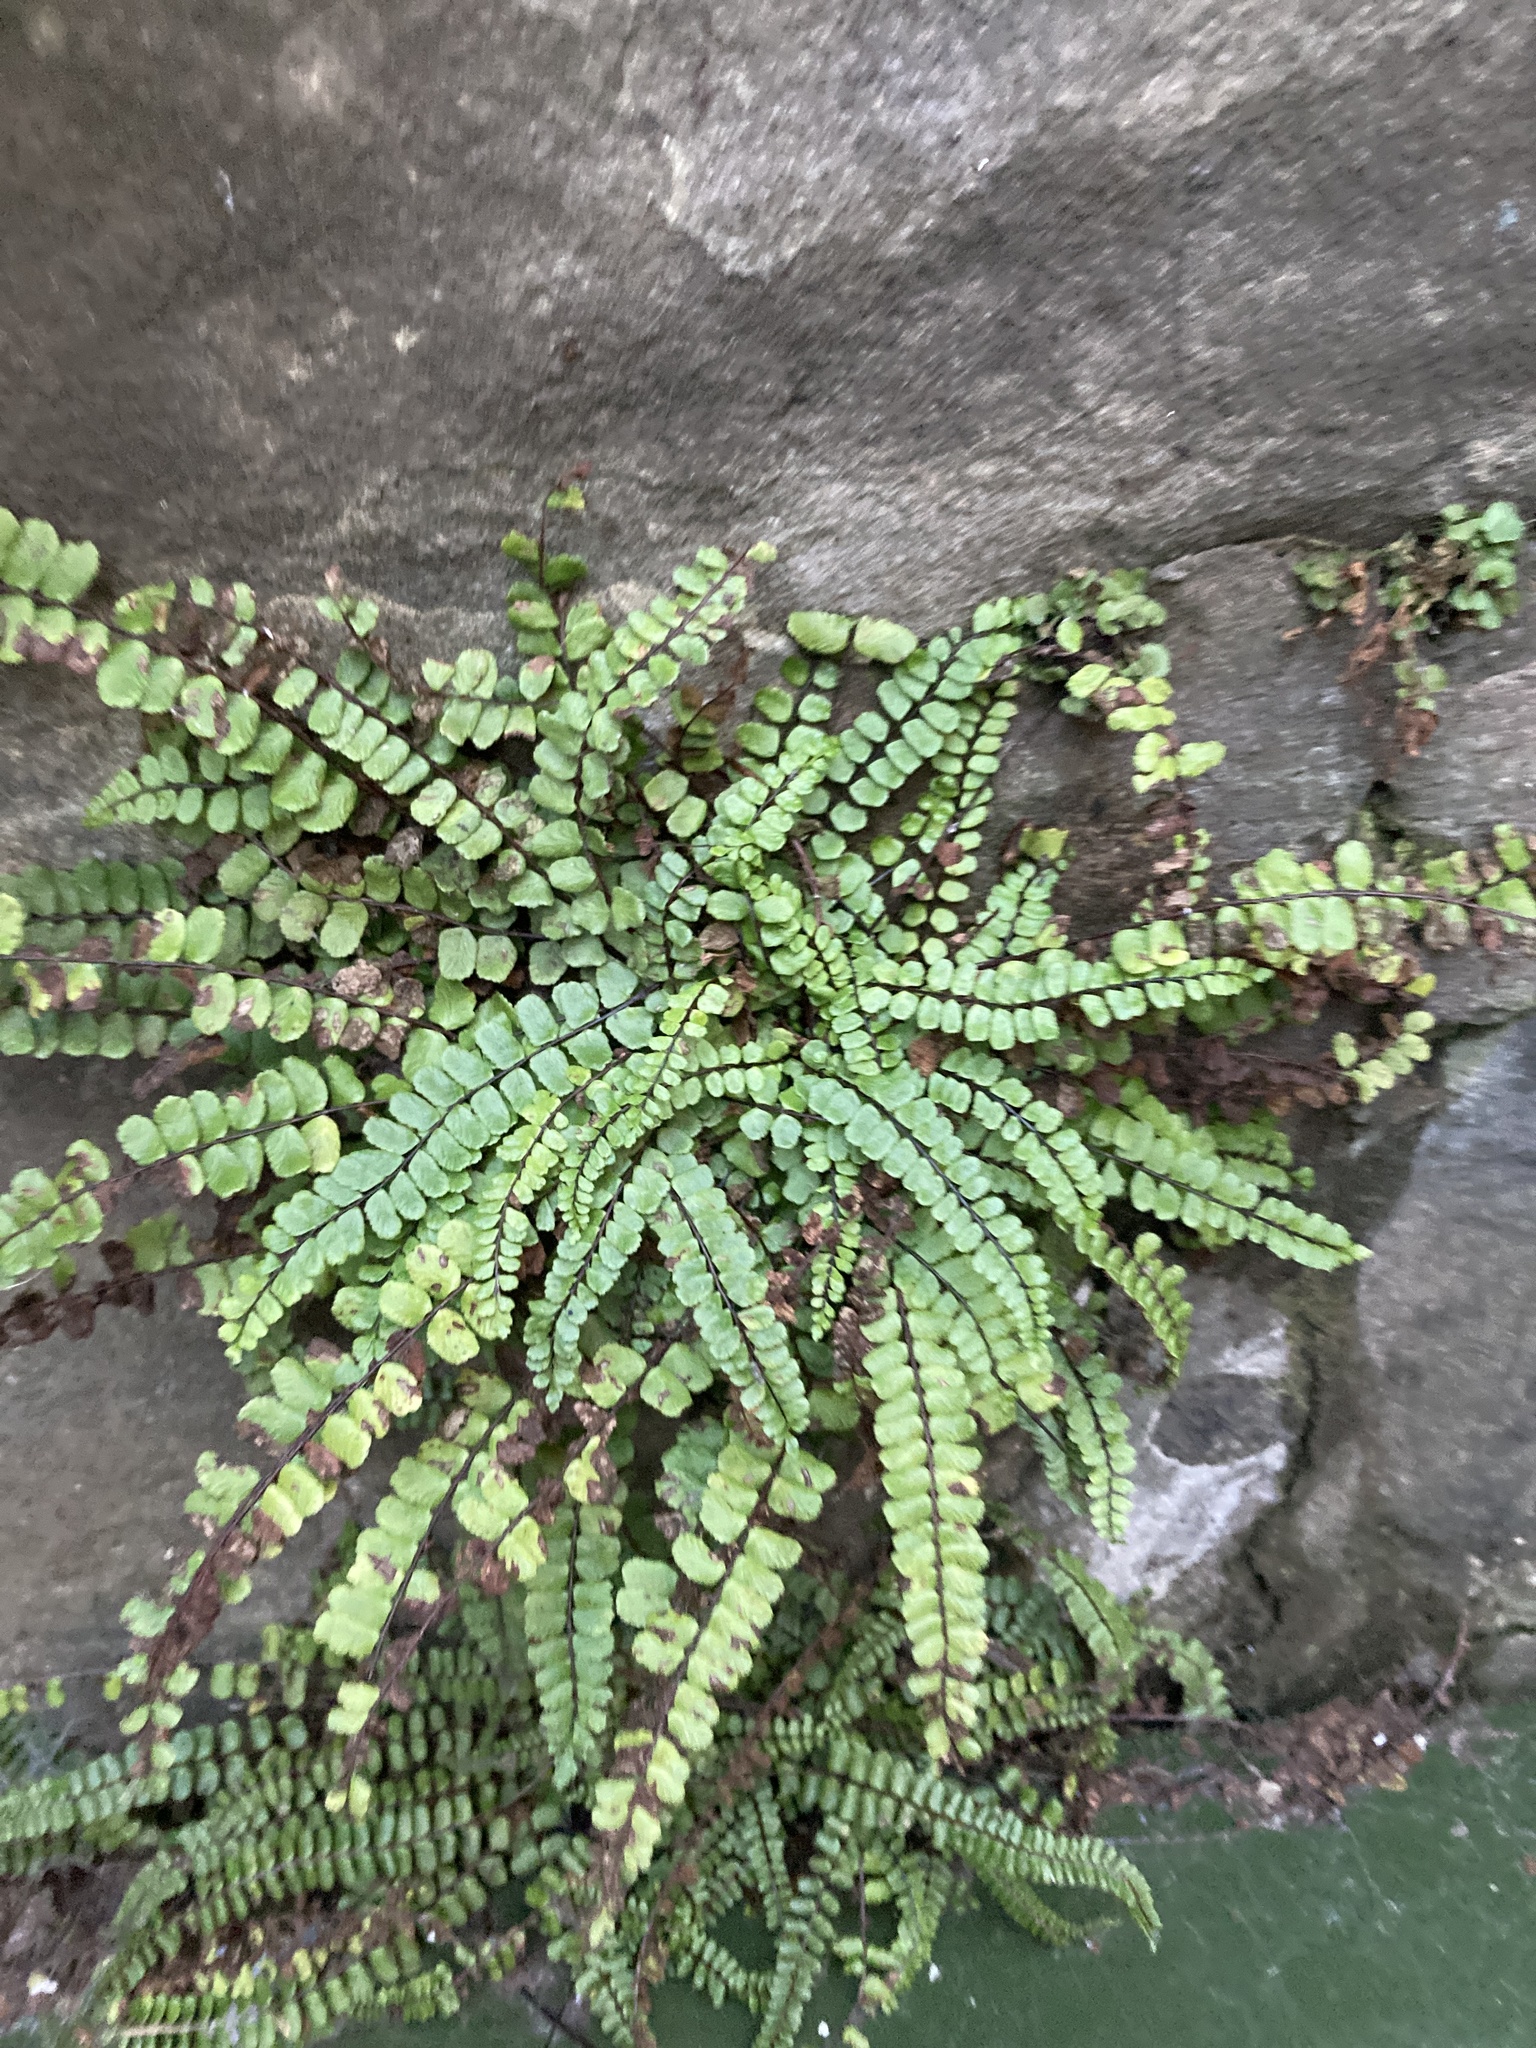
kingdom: Plantae
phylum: Tracheophyta
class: Polypodiopsida
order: Polypodiales
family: Aspleniaceae
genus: Asplenium
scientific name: Asplenium trichomanes
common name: Maidenhair spleenwort
